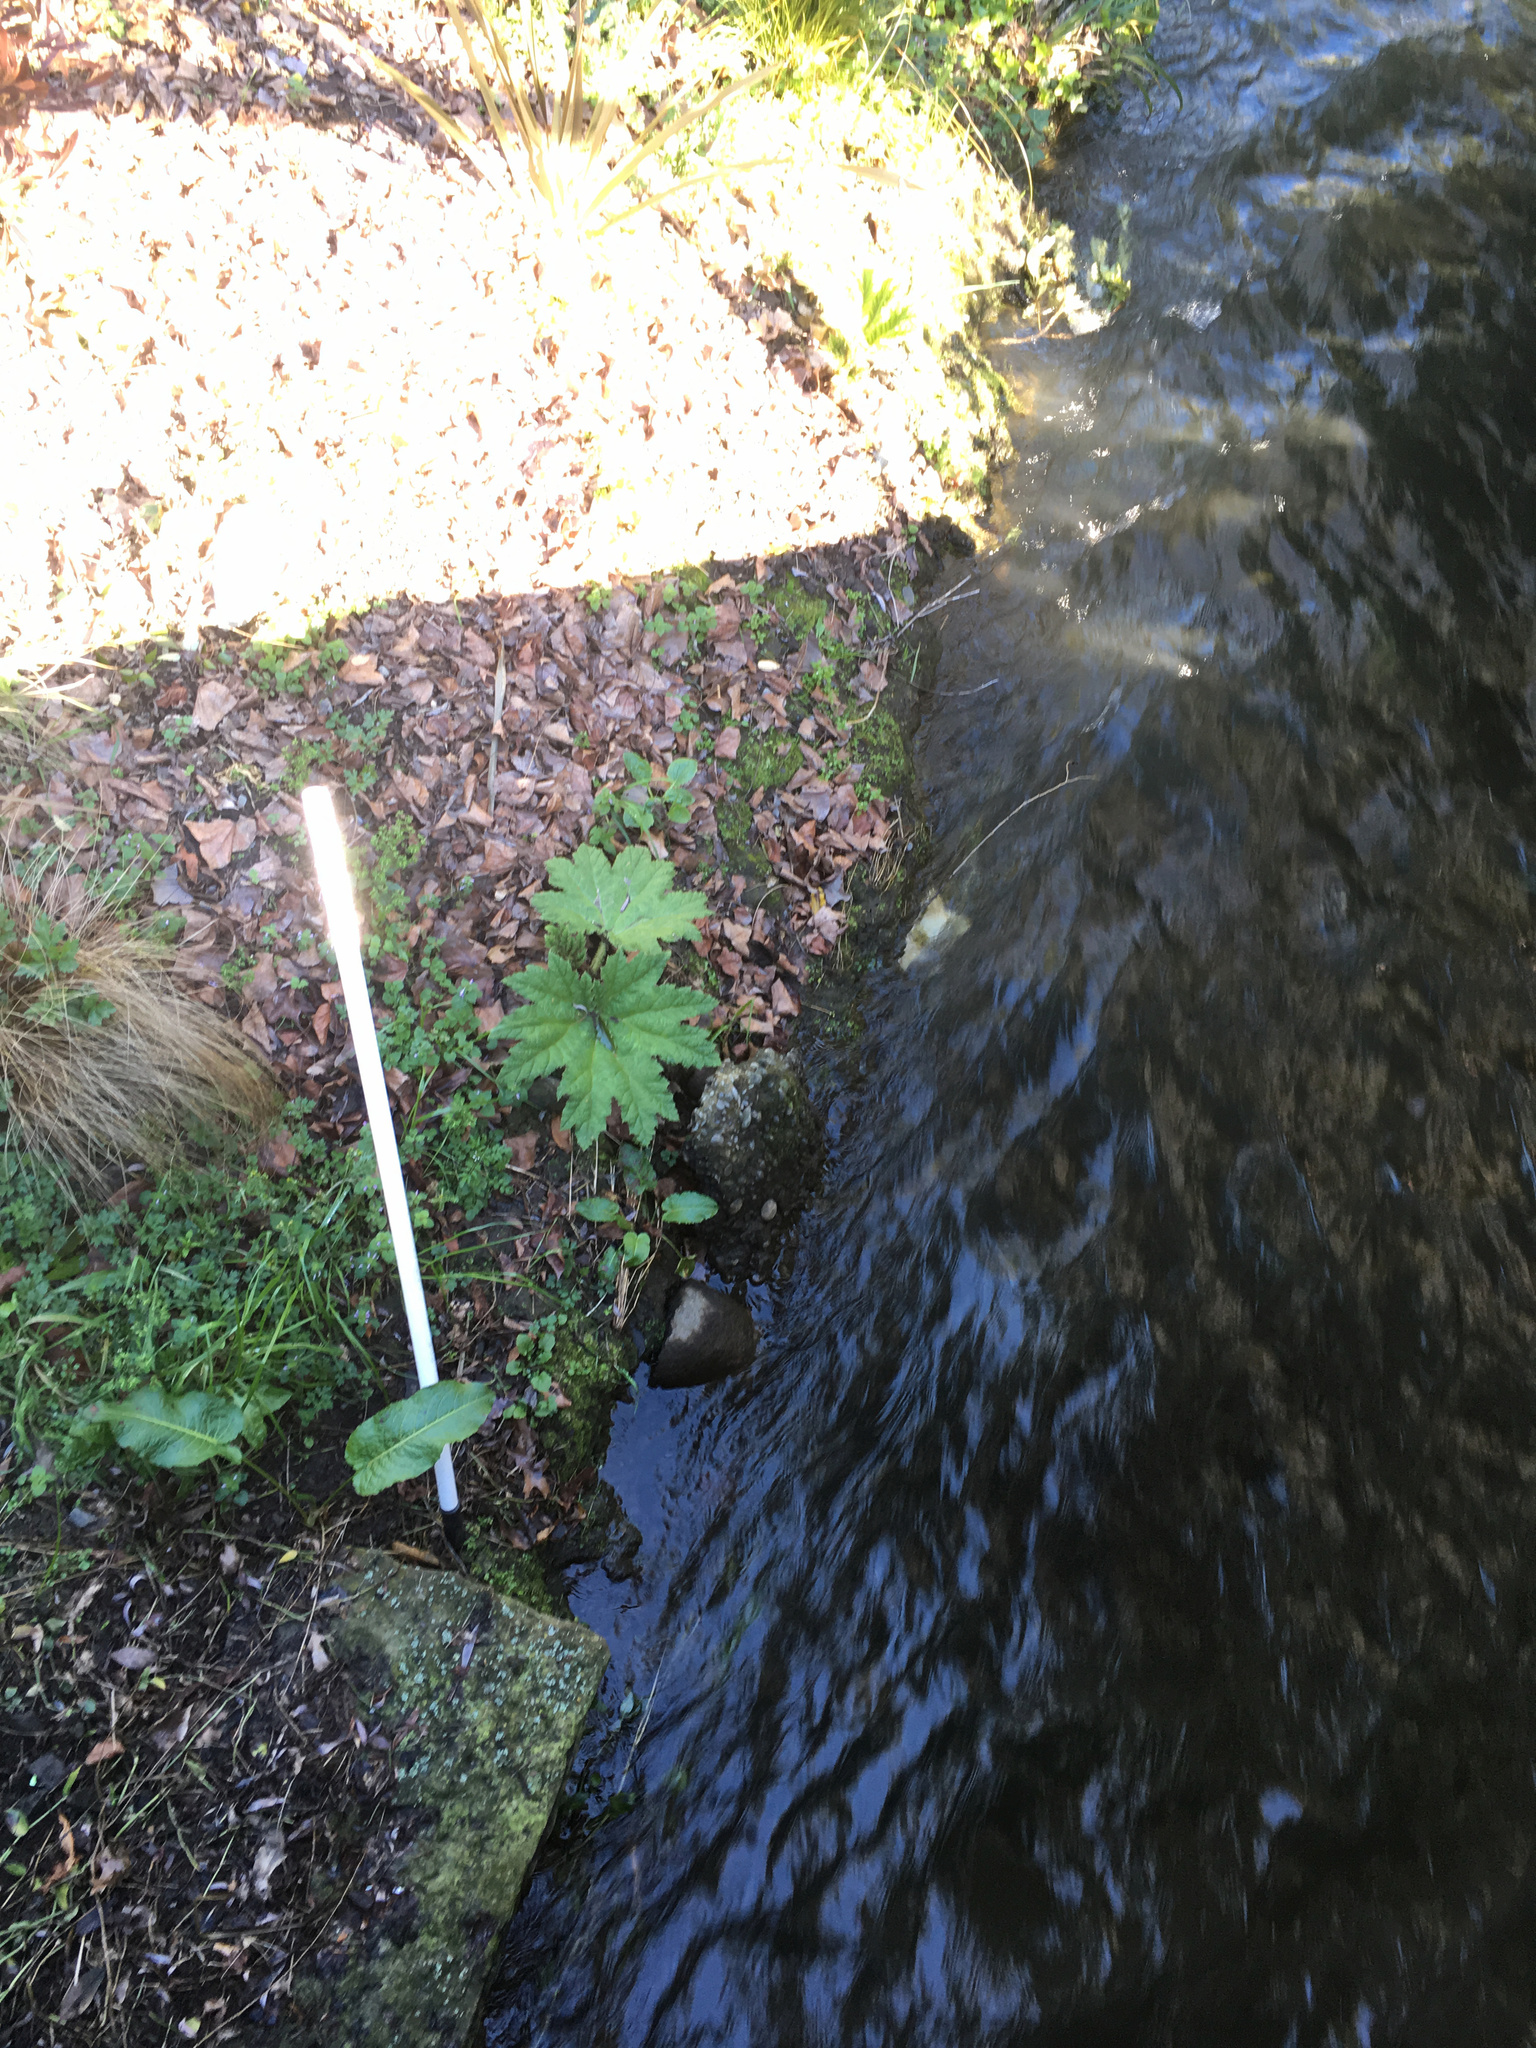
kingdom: Plantae
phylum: Tracheophyta
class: Magnoliopsida
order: Gunnerales
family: Gunneraceae
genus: Gunnera
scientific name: Gunnera tinctoria
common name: Giant-rhubarb
